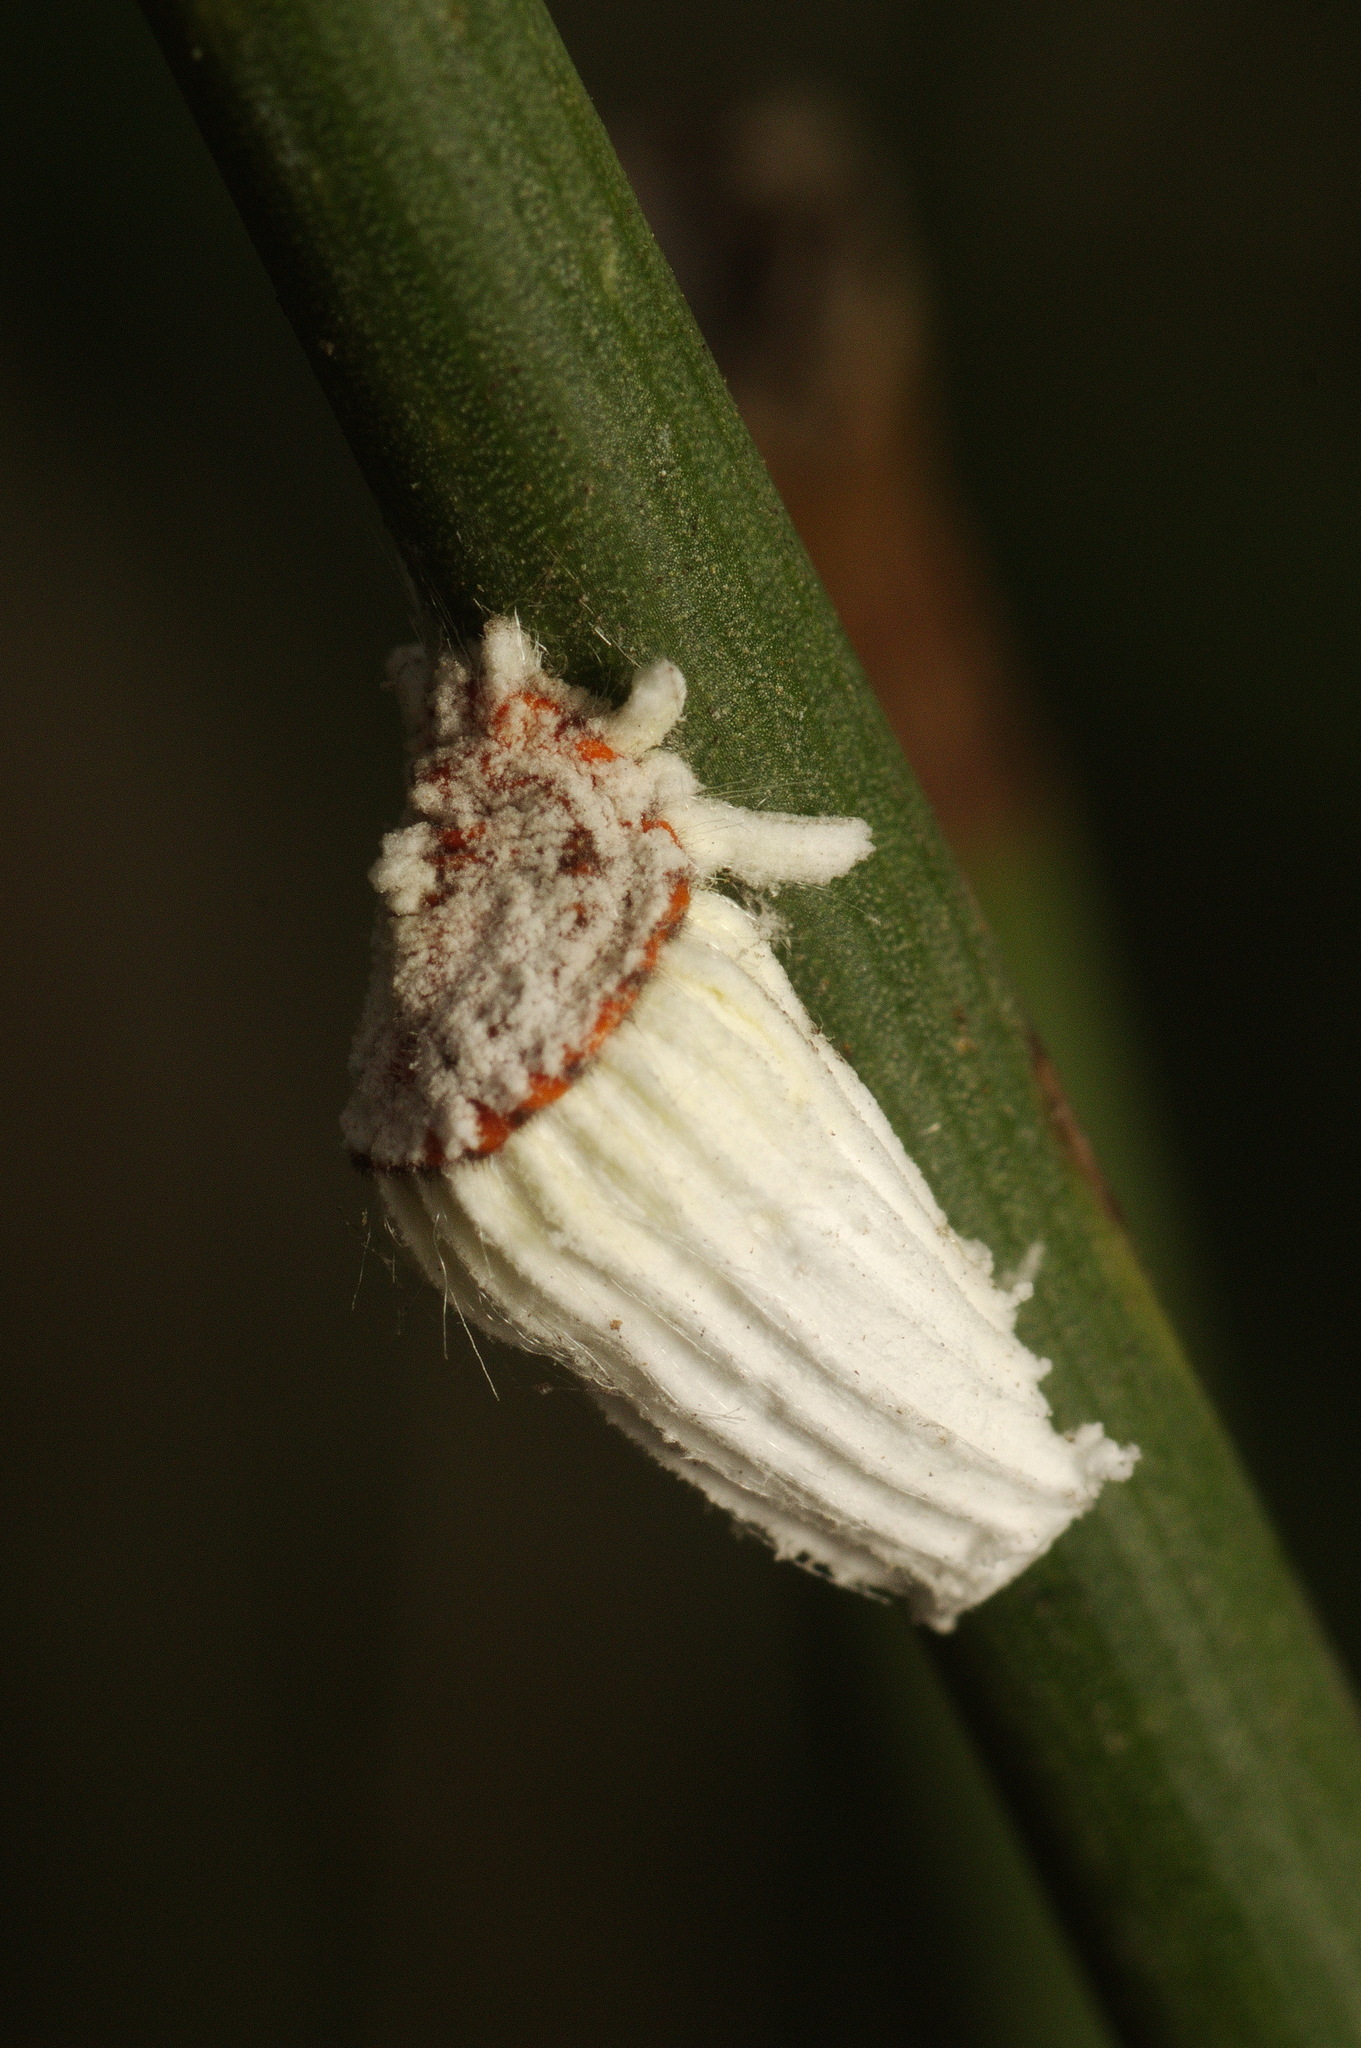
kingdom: Animalia
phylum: Arthropoda
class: Insecta
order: Hemiptera
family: Margarodidae
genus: Icerya
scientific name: Icerya purchasi
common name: Cottony cushion scale
